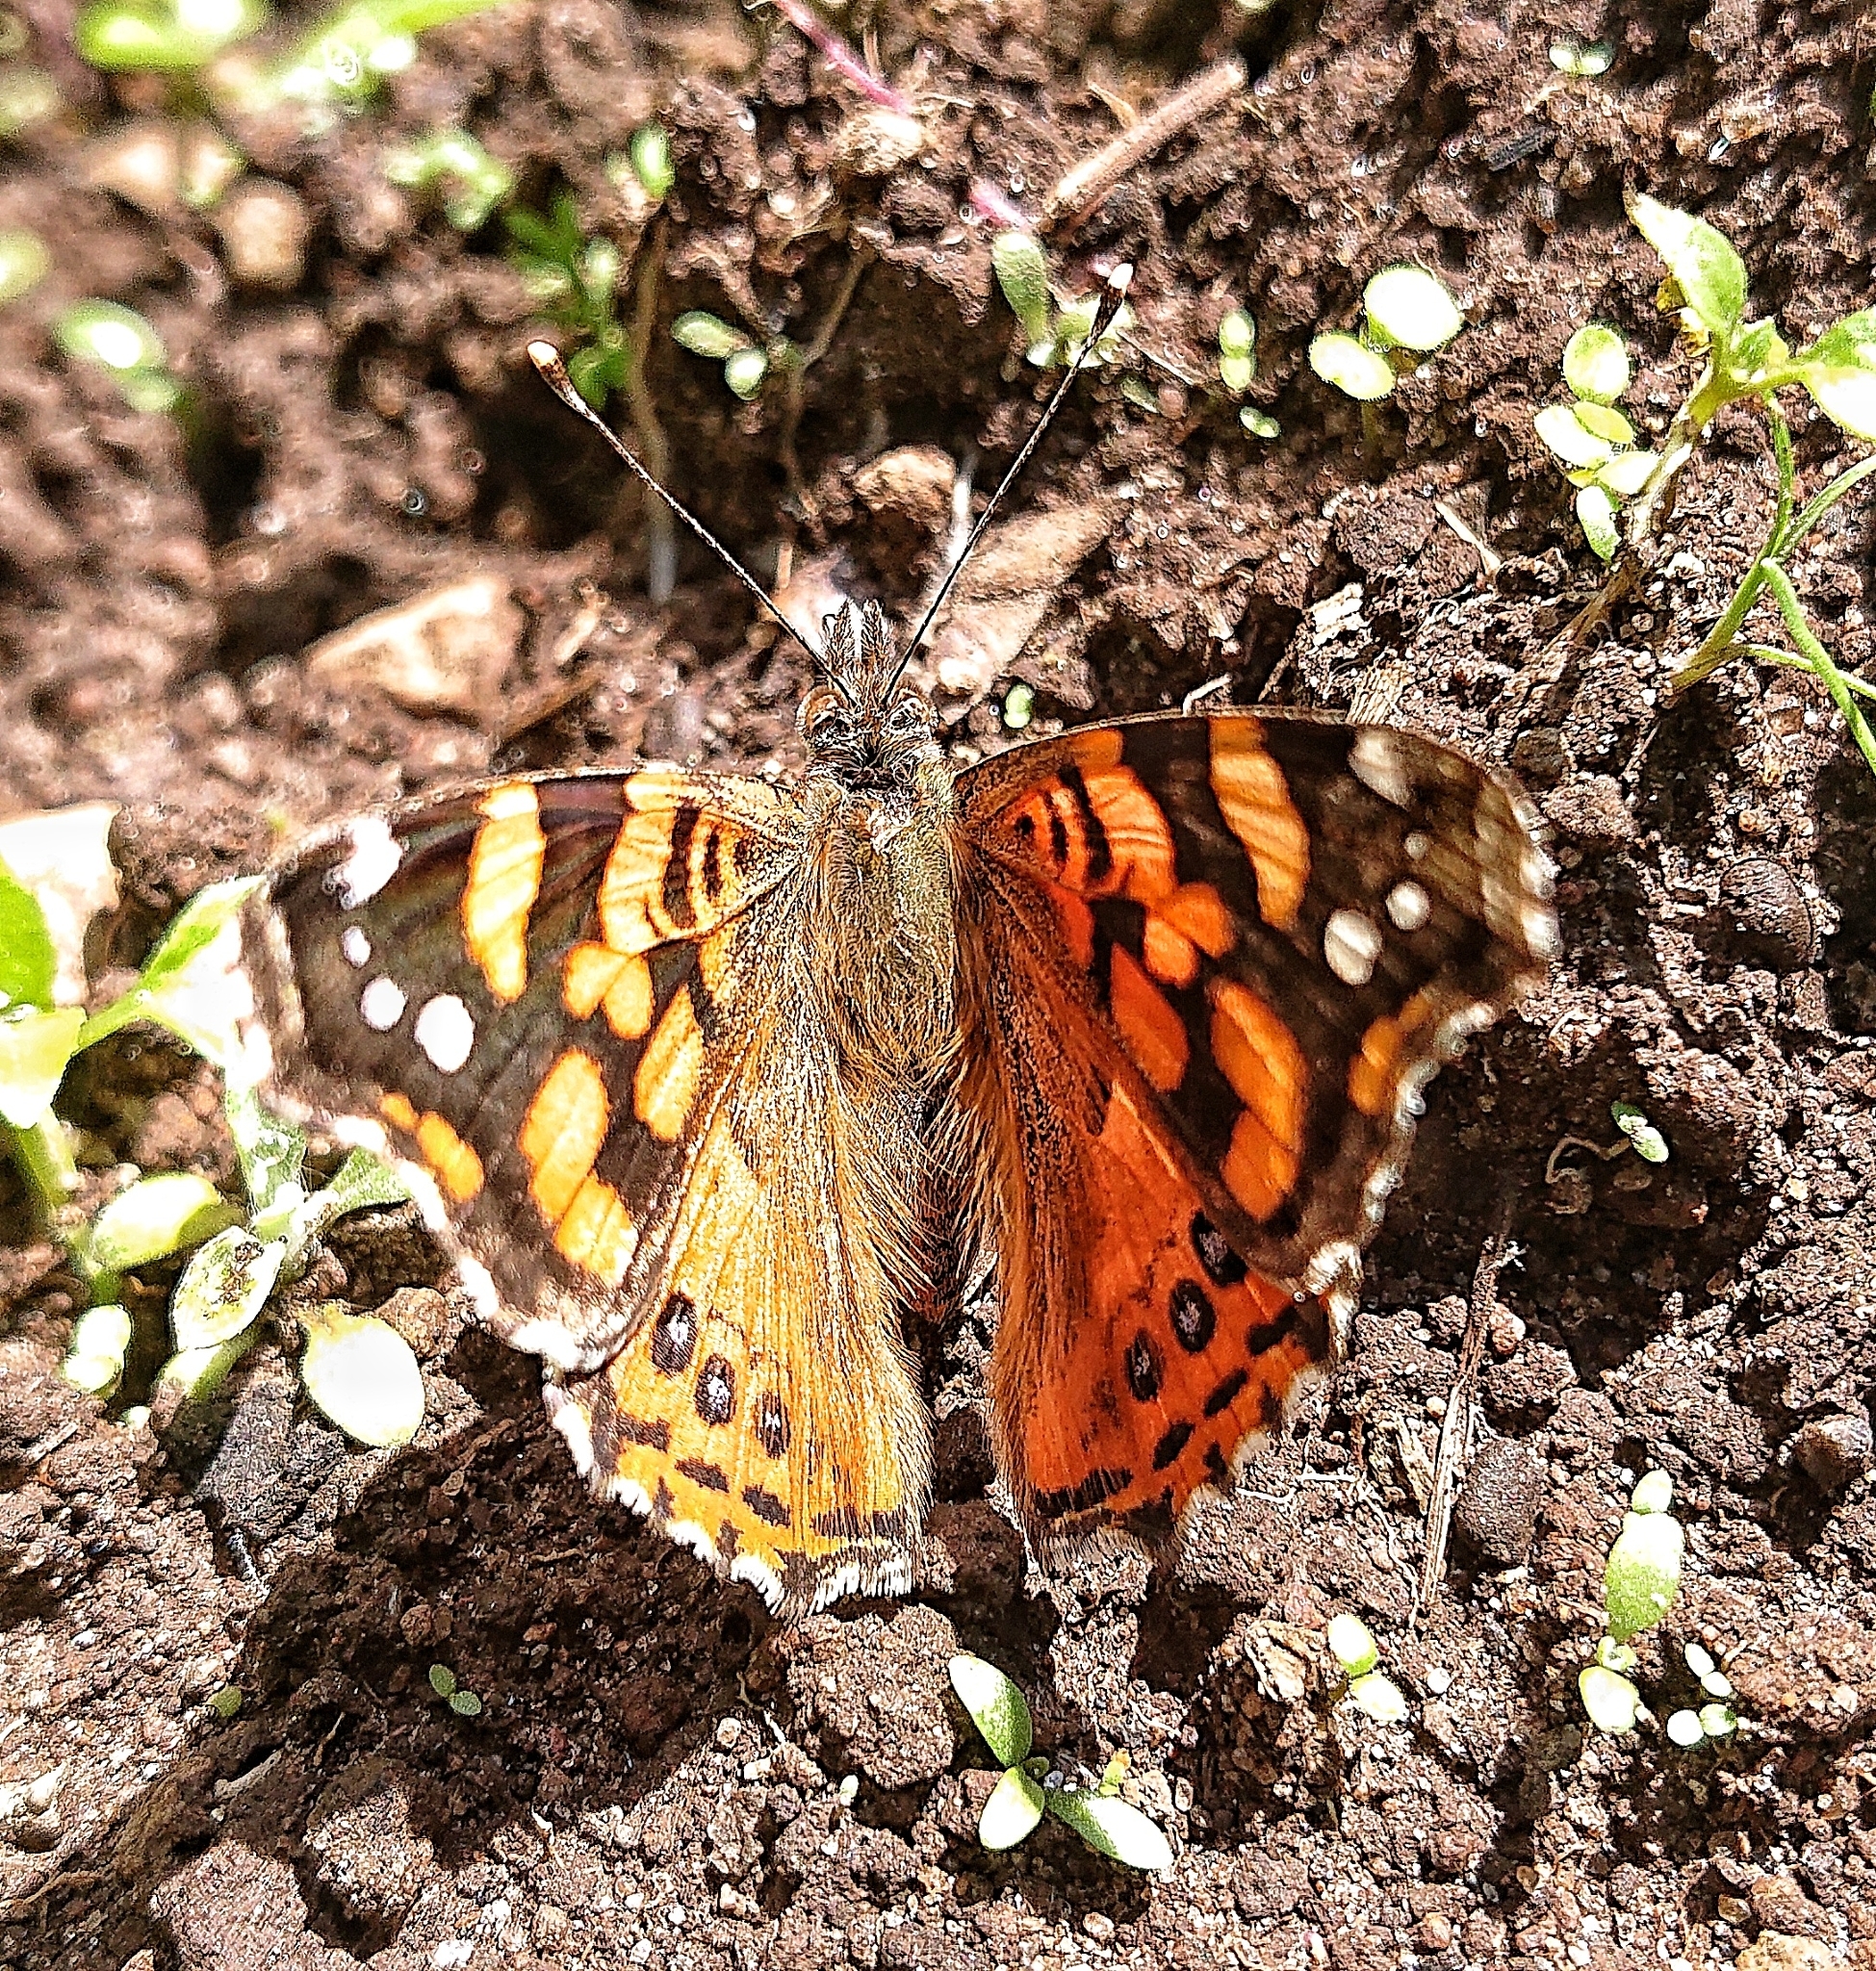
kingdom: Animalia
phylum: Arthropoda
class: Insecta
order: Lepidoptera
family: Nymphalidae
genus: Vanessa
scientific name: Vanessa carye
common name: Subtropical lady
